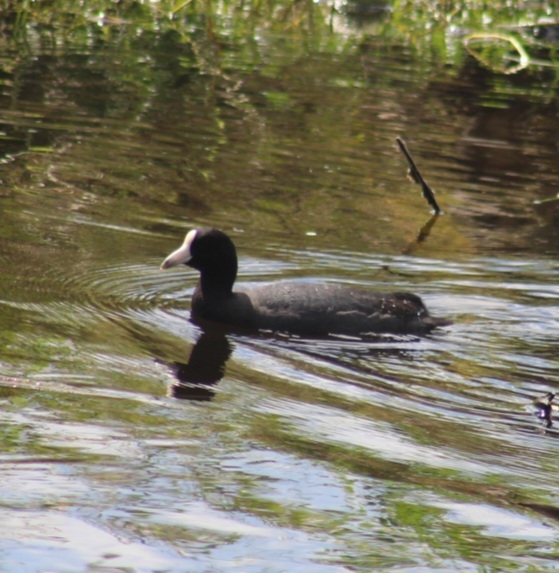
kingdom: Animalia
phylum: Chordata
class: Aves
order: Gruiformes
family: Rallidae
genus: Fulica
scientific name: Fulica alai
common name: Hawaiian coot
